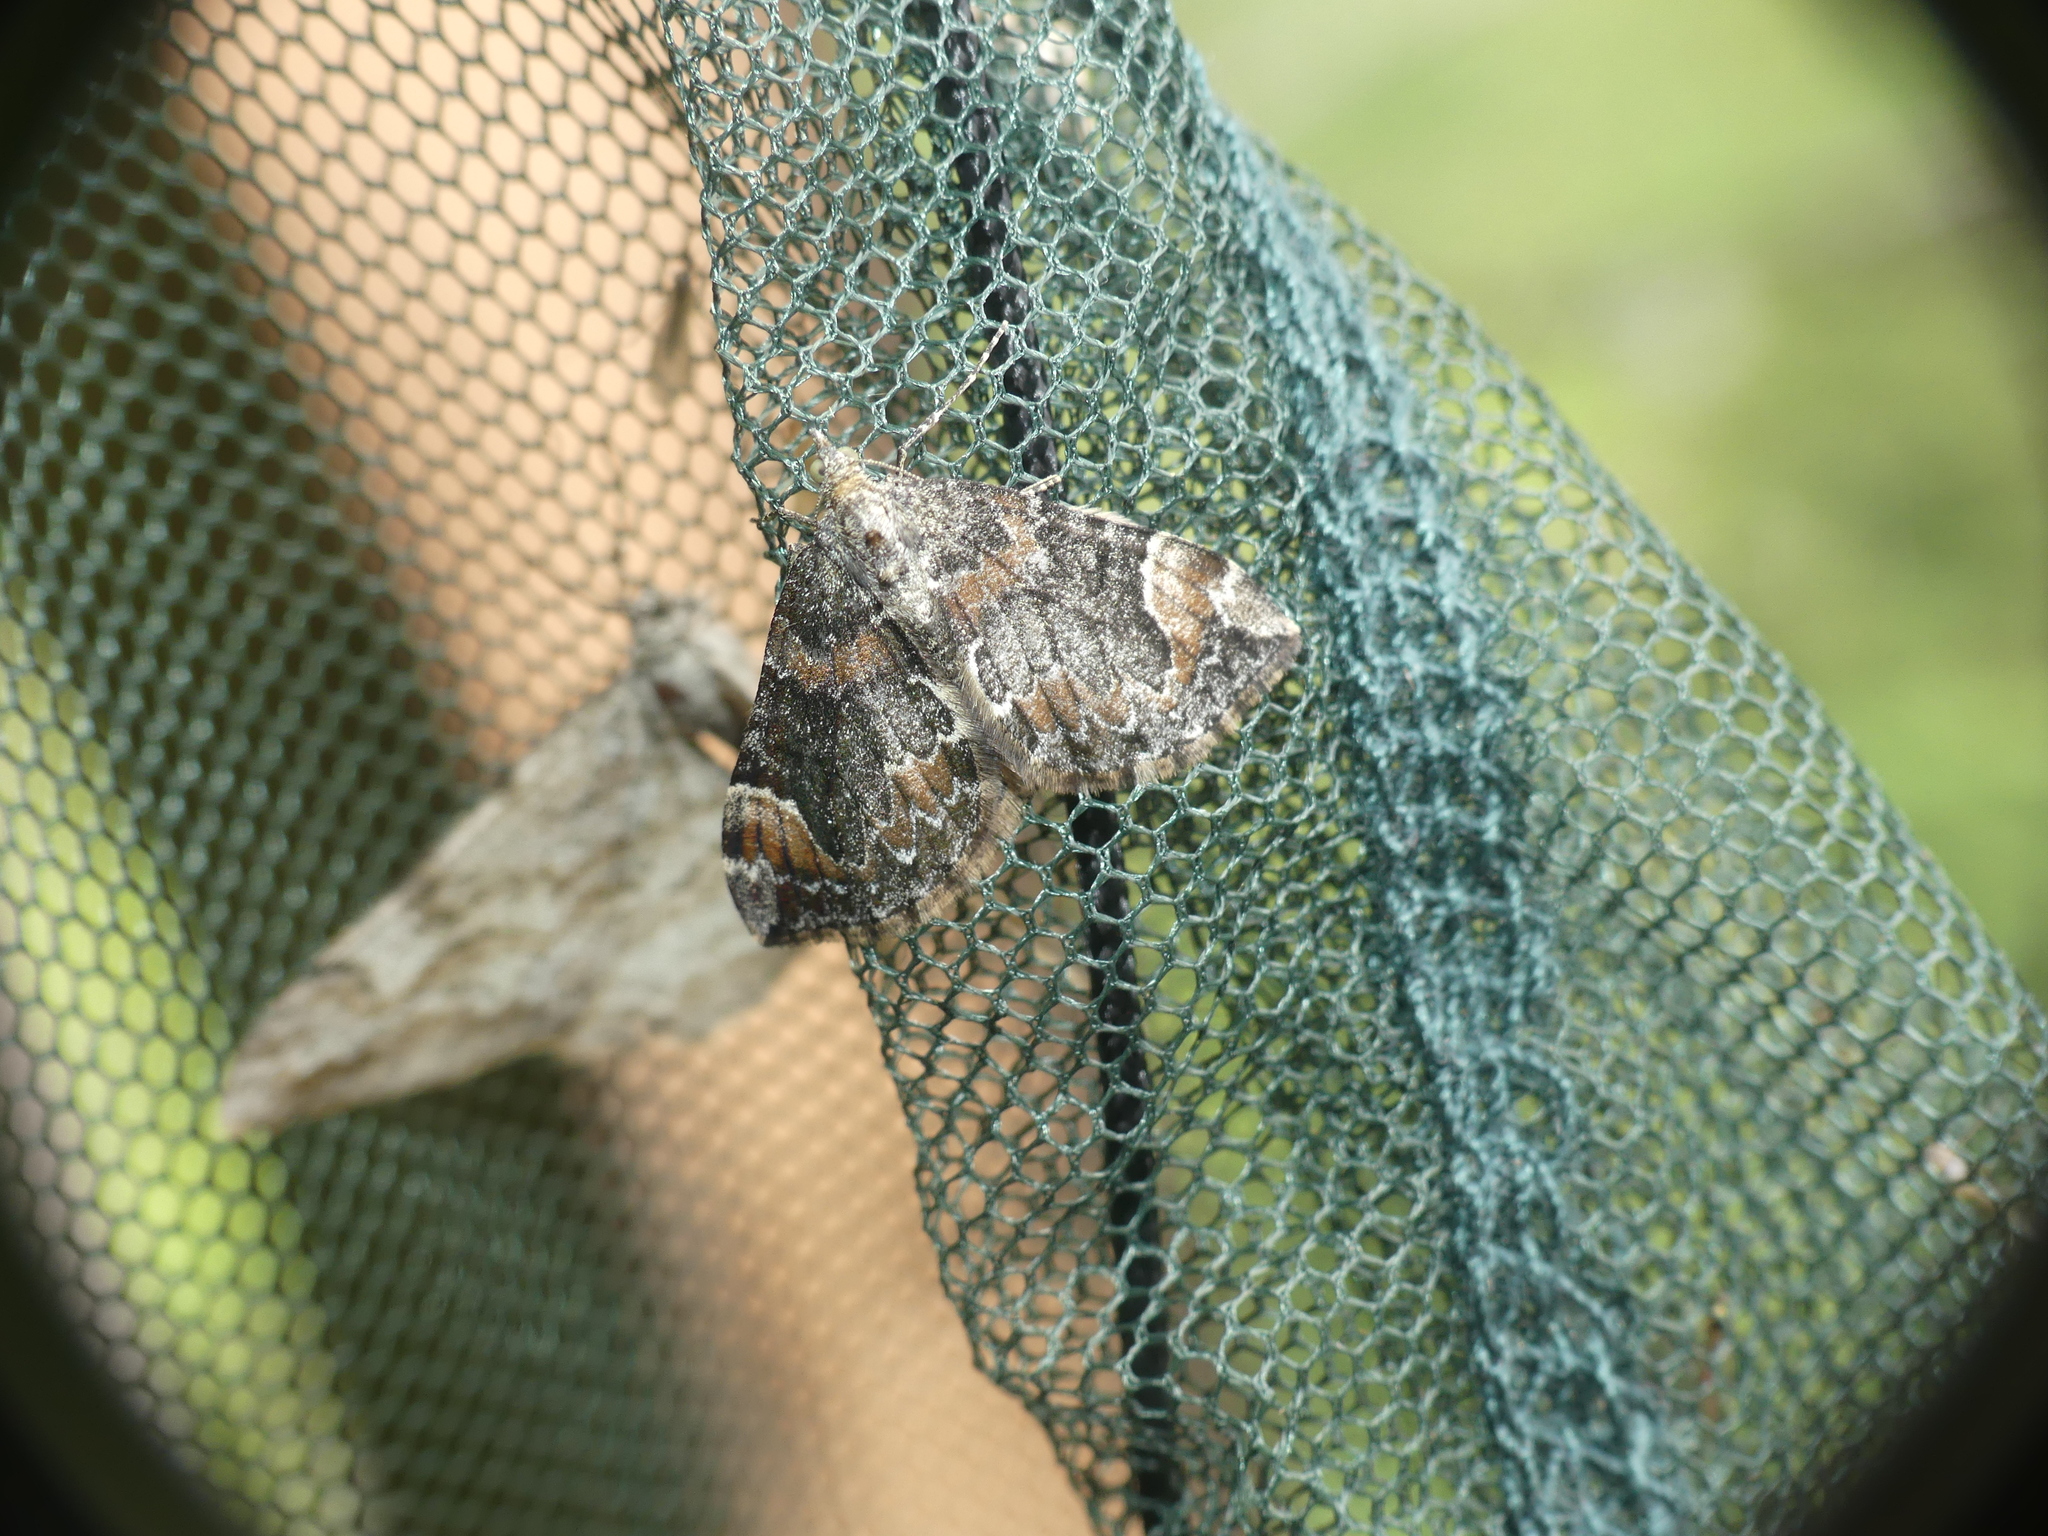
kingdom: Animalia
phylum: Arthropoda
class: Insecta
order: Lepidoptera
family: Geometridae
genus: Dysstroma
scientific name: Dysstroma citrata
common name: Dark marbled carpet
